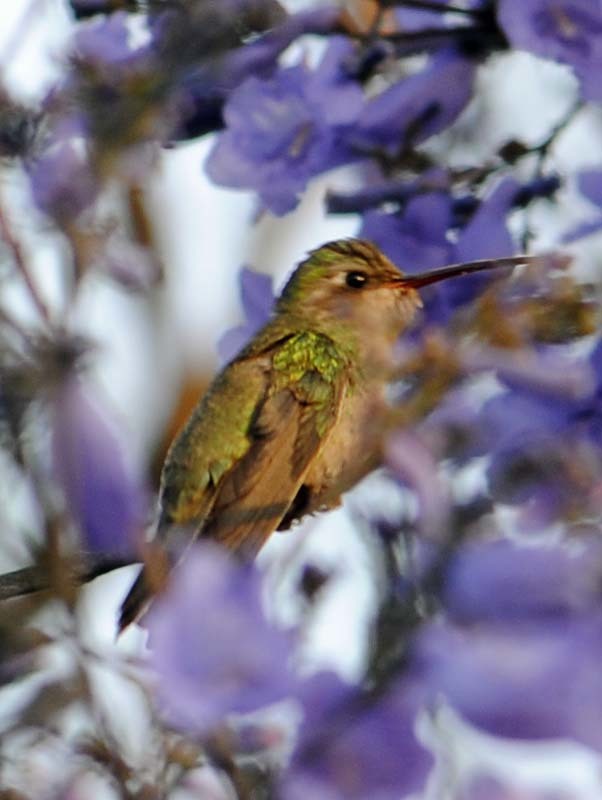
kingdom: Animalia
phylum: Chordata
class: Aves
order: Apodiformes
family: Trochilidae
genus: Cynanthus
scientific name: Cynanthus latirostris
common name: Broad-billed hummingbird
